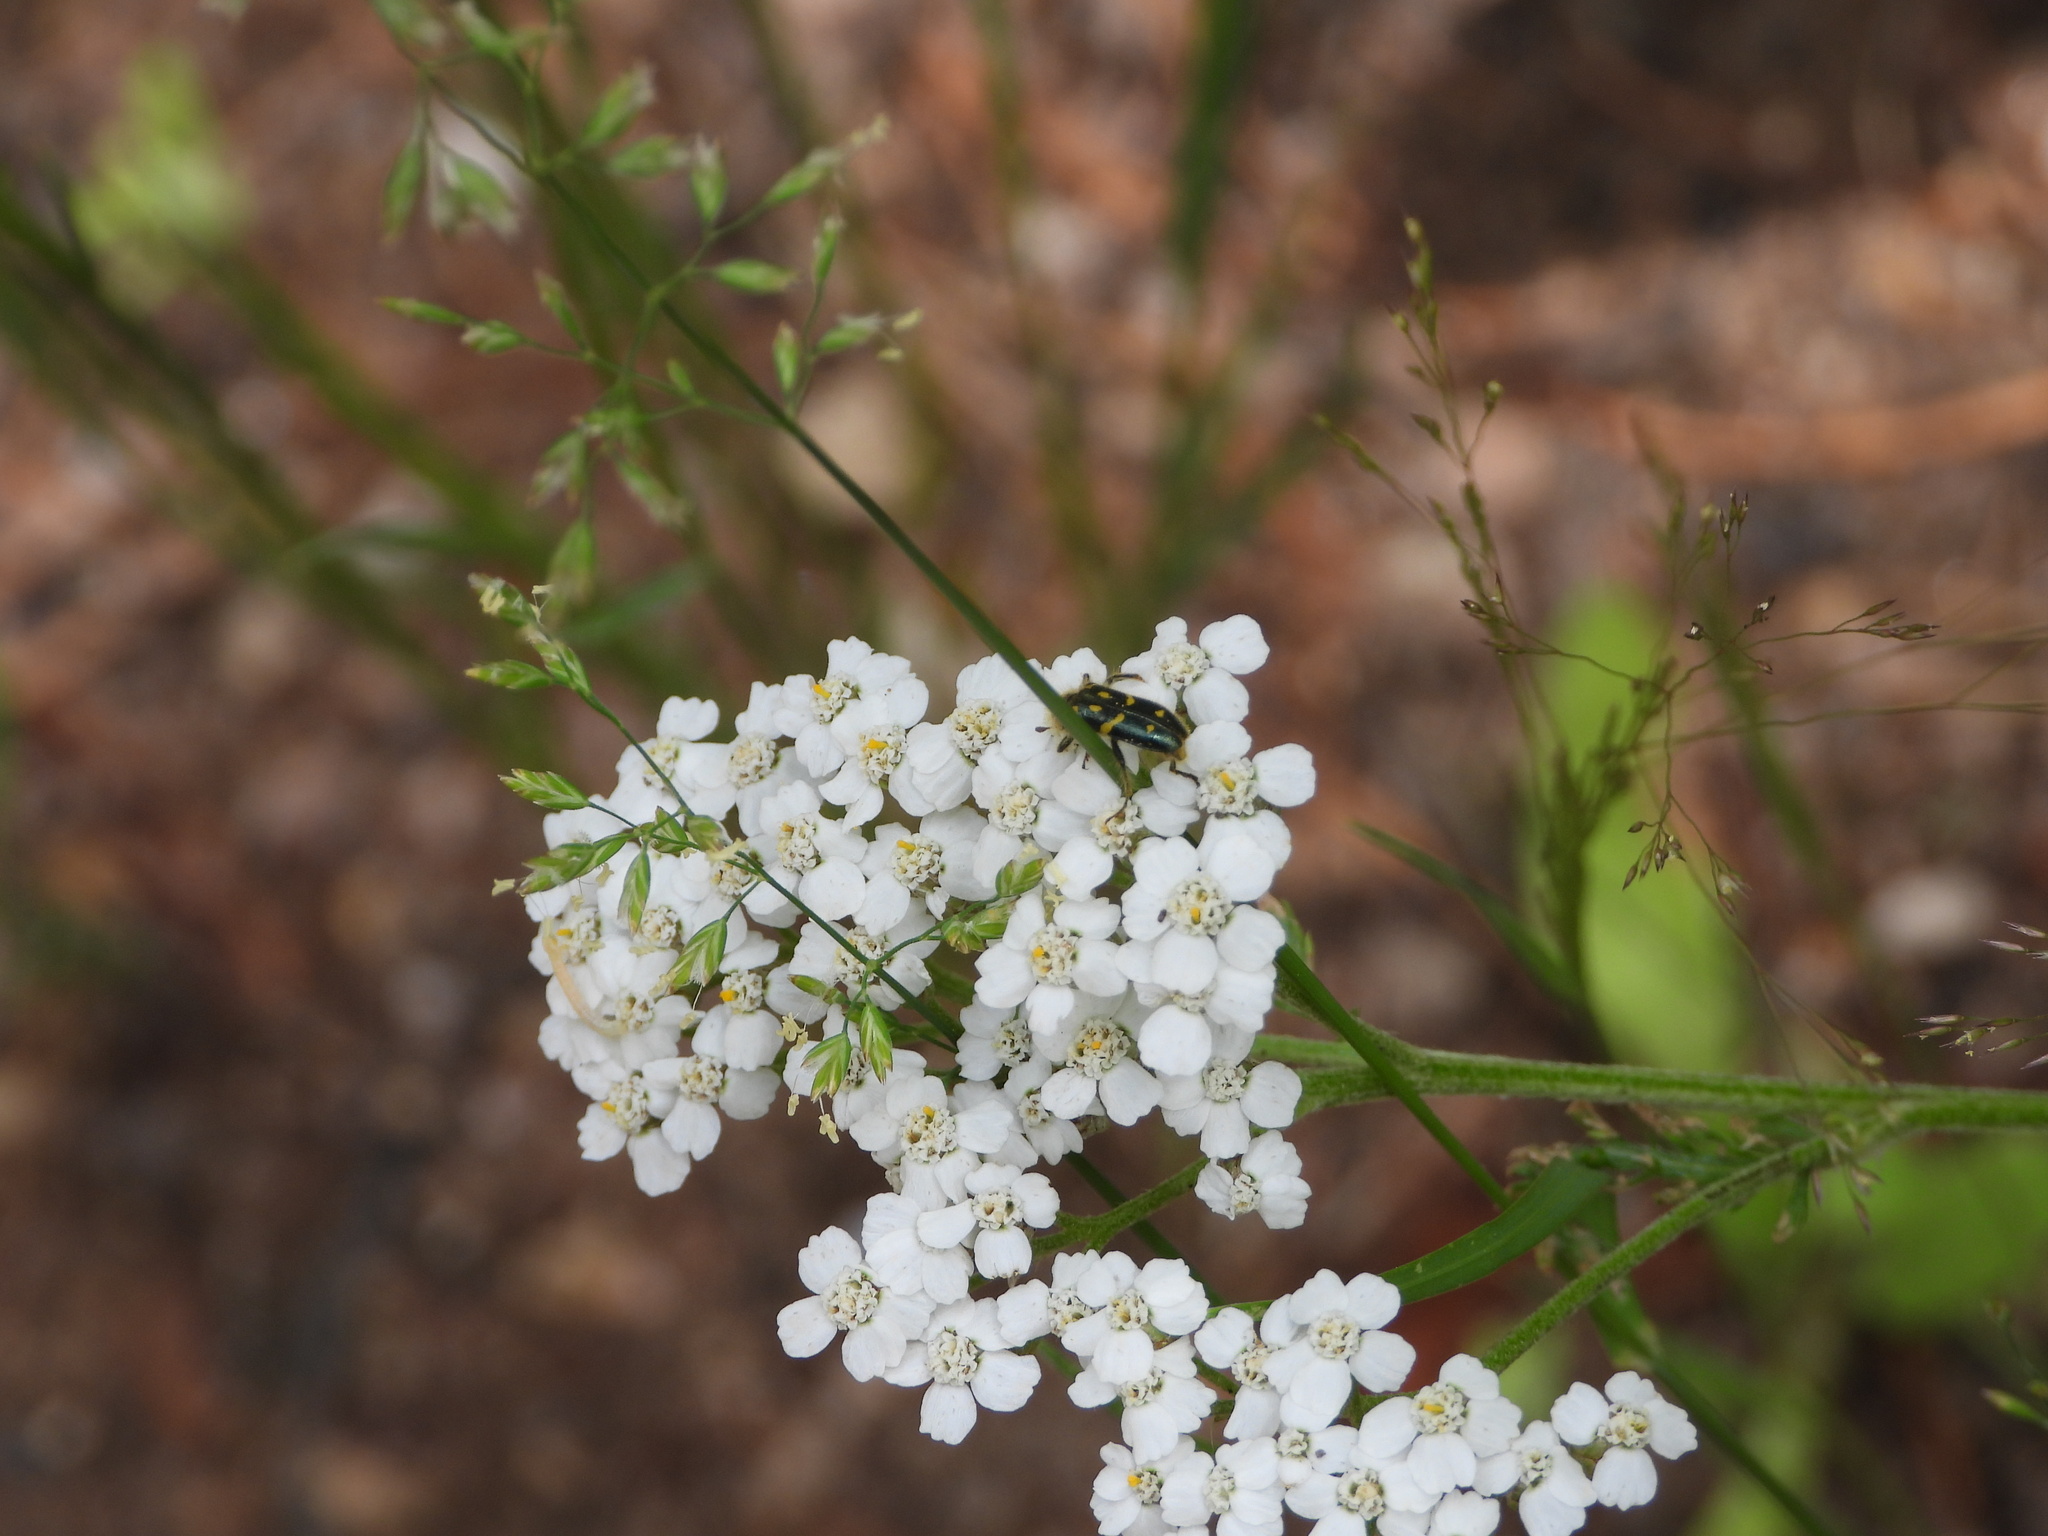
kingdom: Animalia
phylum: Arthropoda
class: Insecta
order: Coleoptera
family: Cleridae
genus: Trichodes
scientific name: Trichodes ornatus
